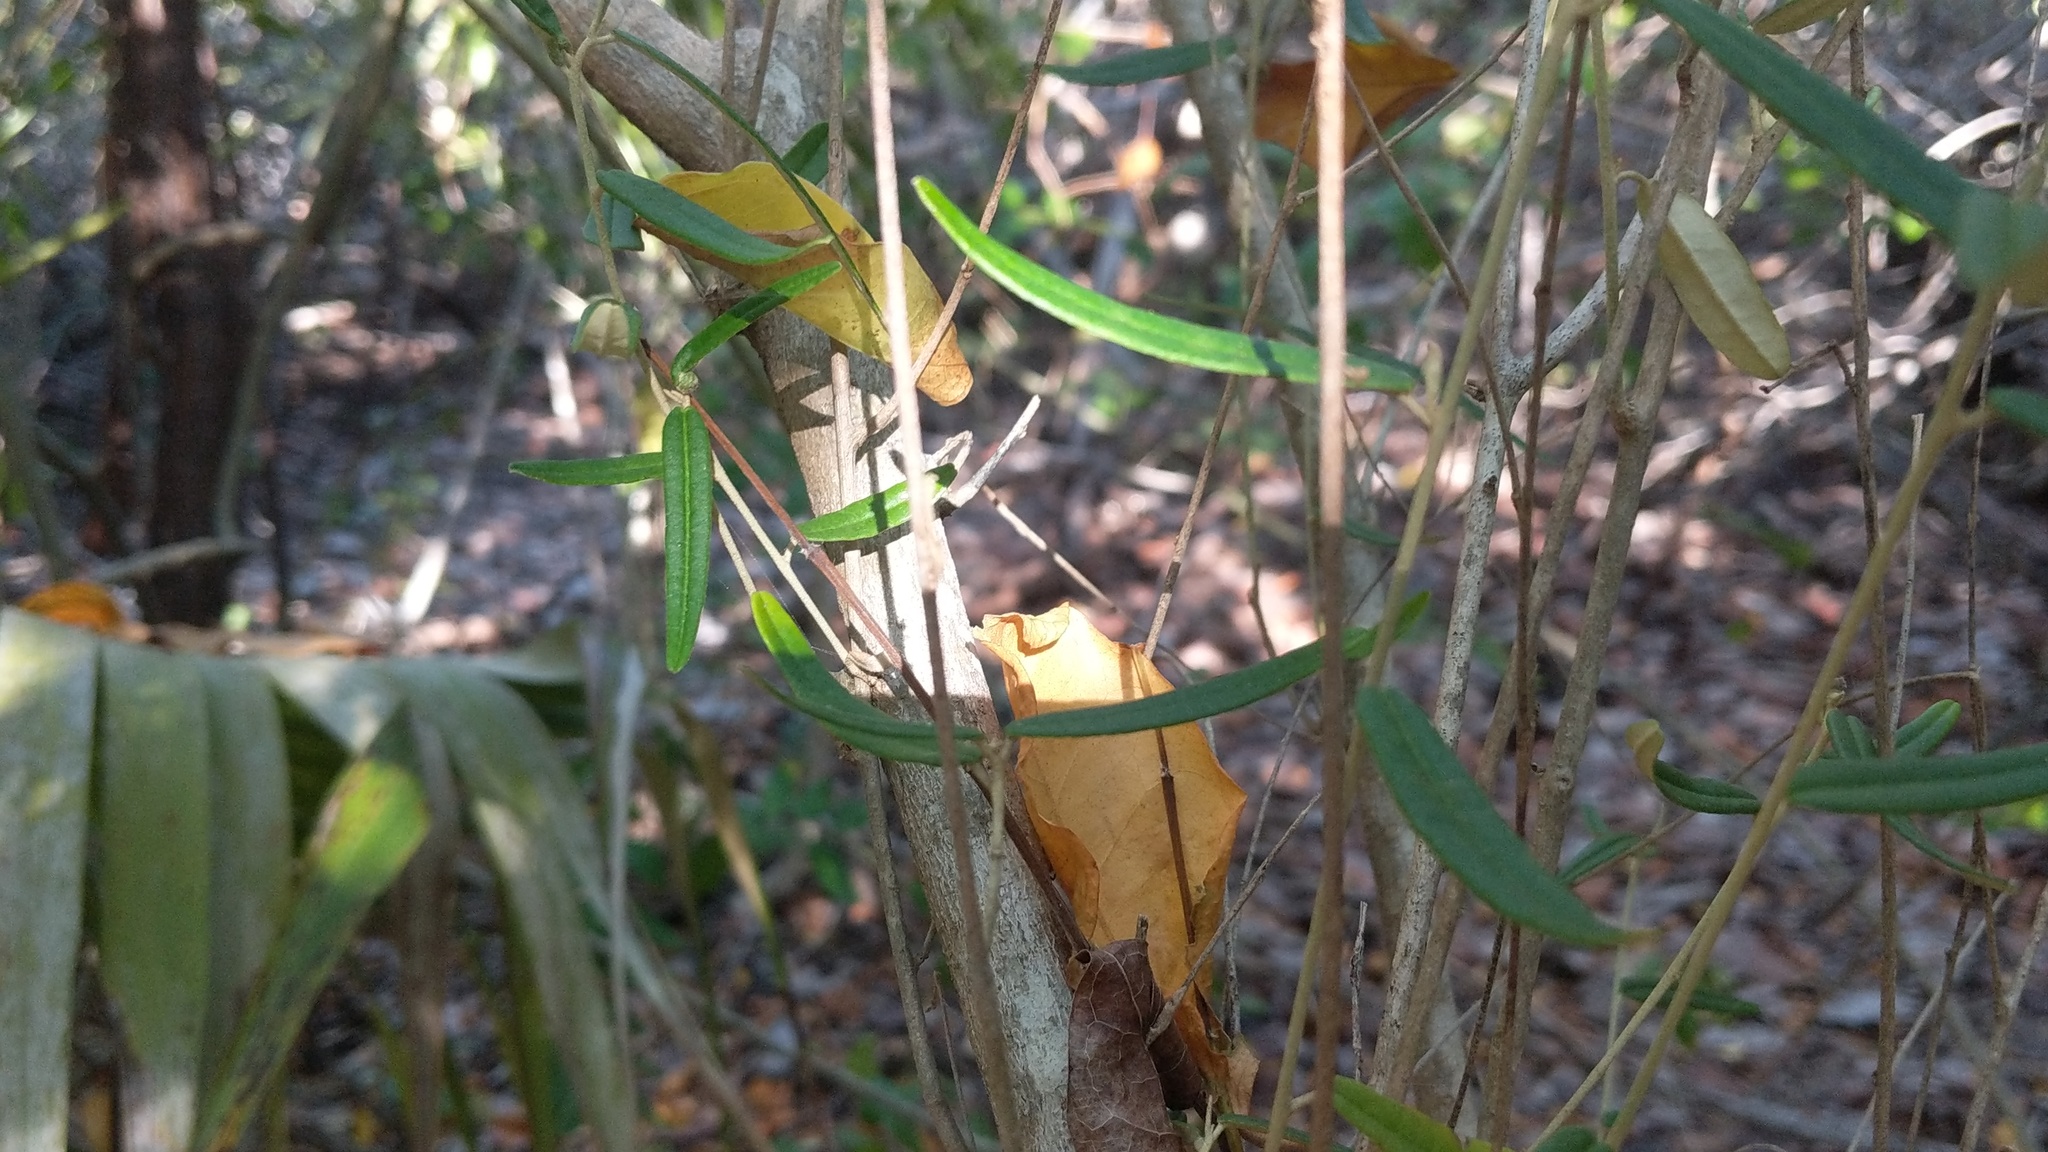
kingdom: Plantae
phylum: Tracheophyta
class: Magnoliopsida
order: Malpighiales
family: Euphorbiaceae
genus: Croton
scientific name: Croton linearis
